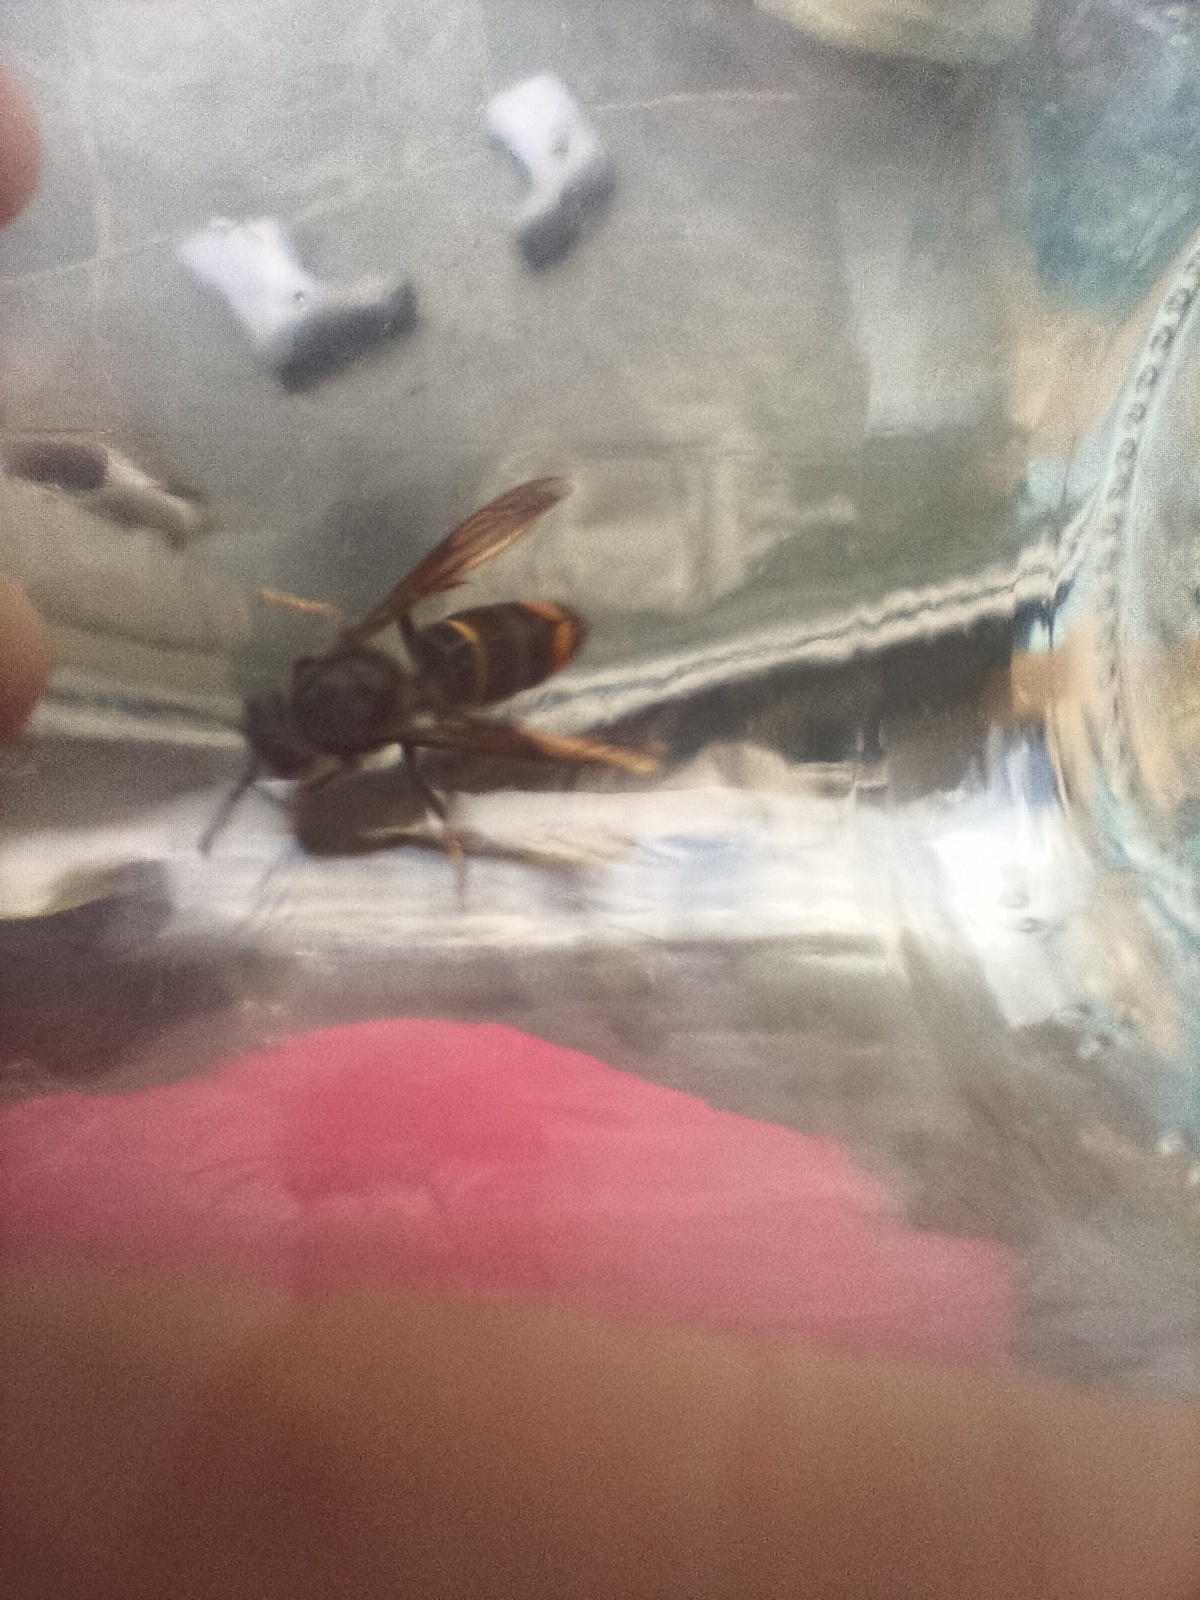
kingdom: Animalia
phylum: Arthropoda
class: Insecta
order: Hymenoptera
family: Vespidae
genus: Vespa
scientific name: Vespa velutina
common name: Asian hornet
